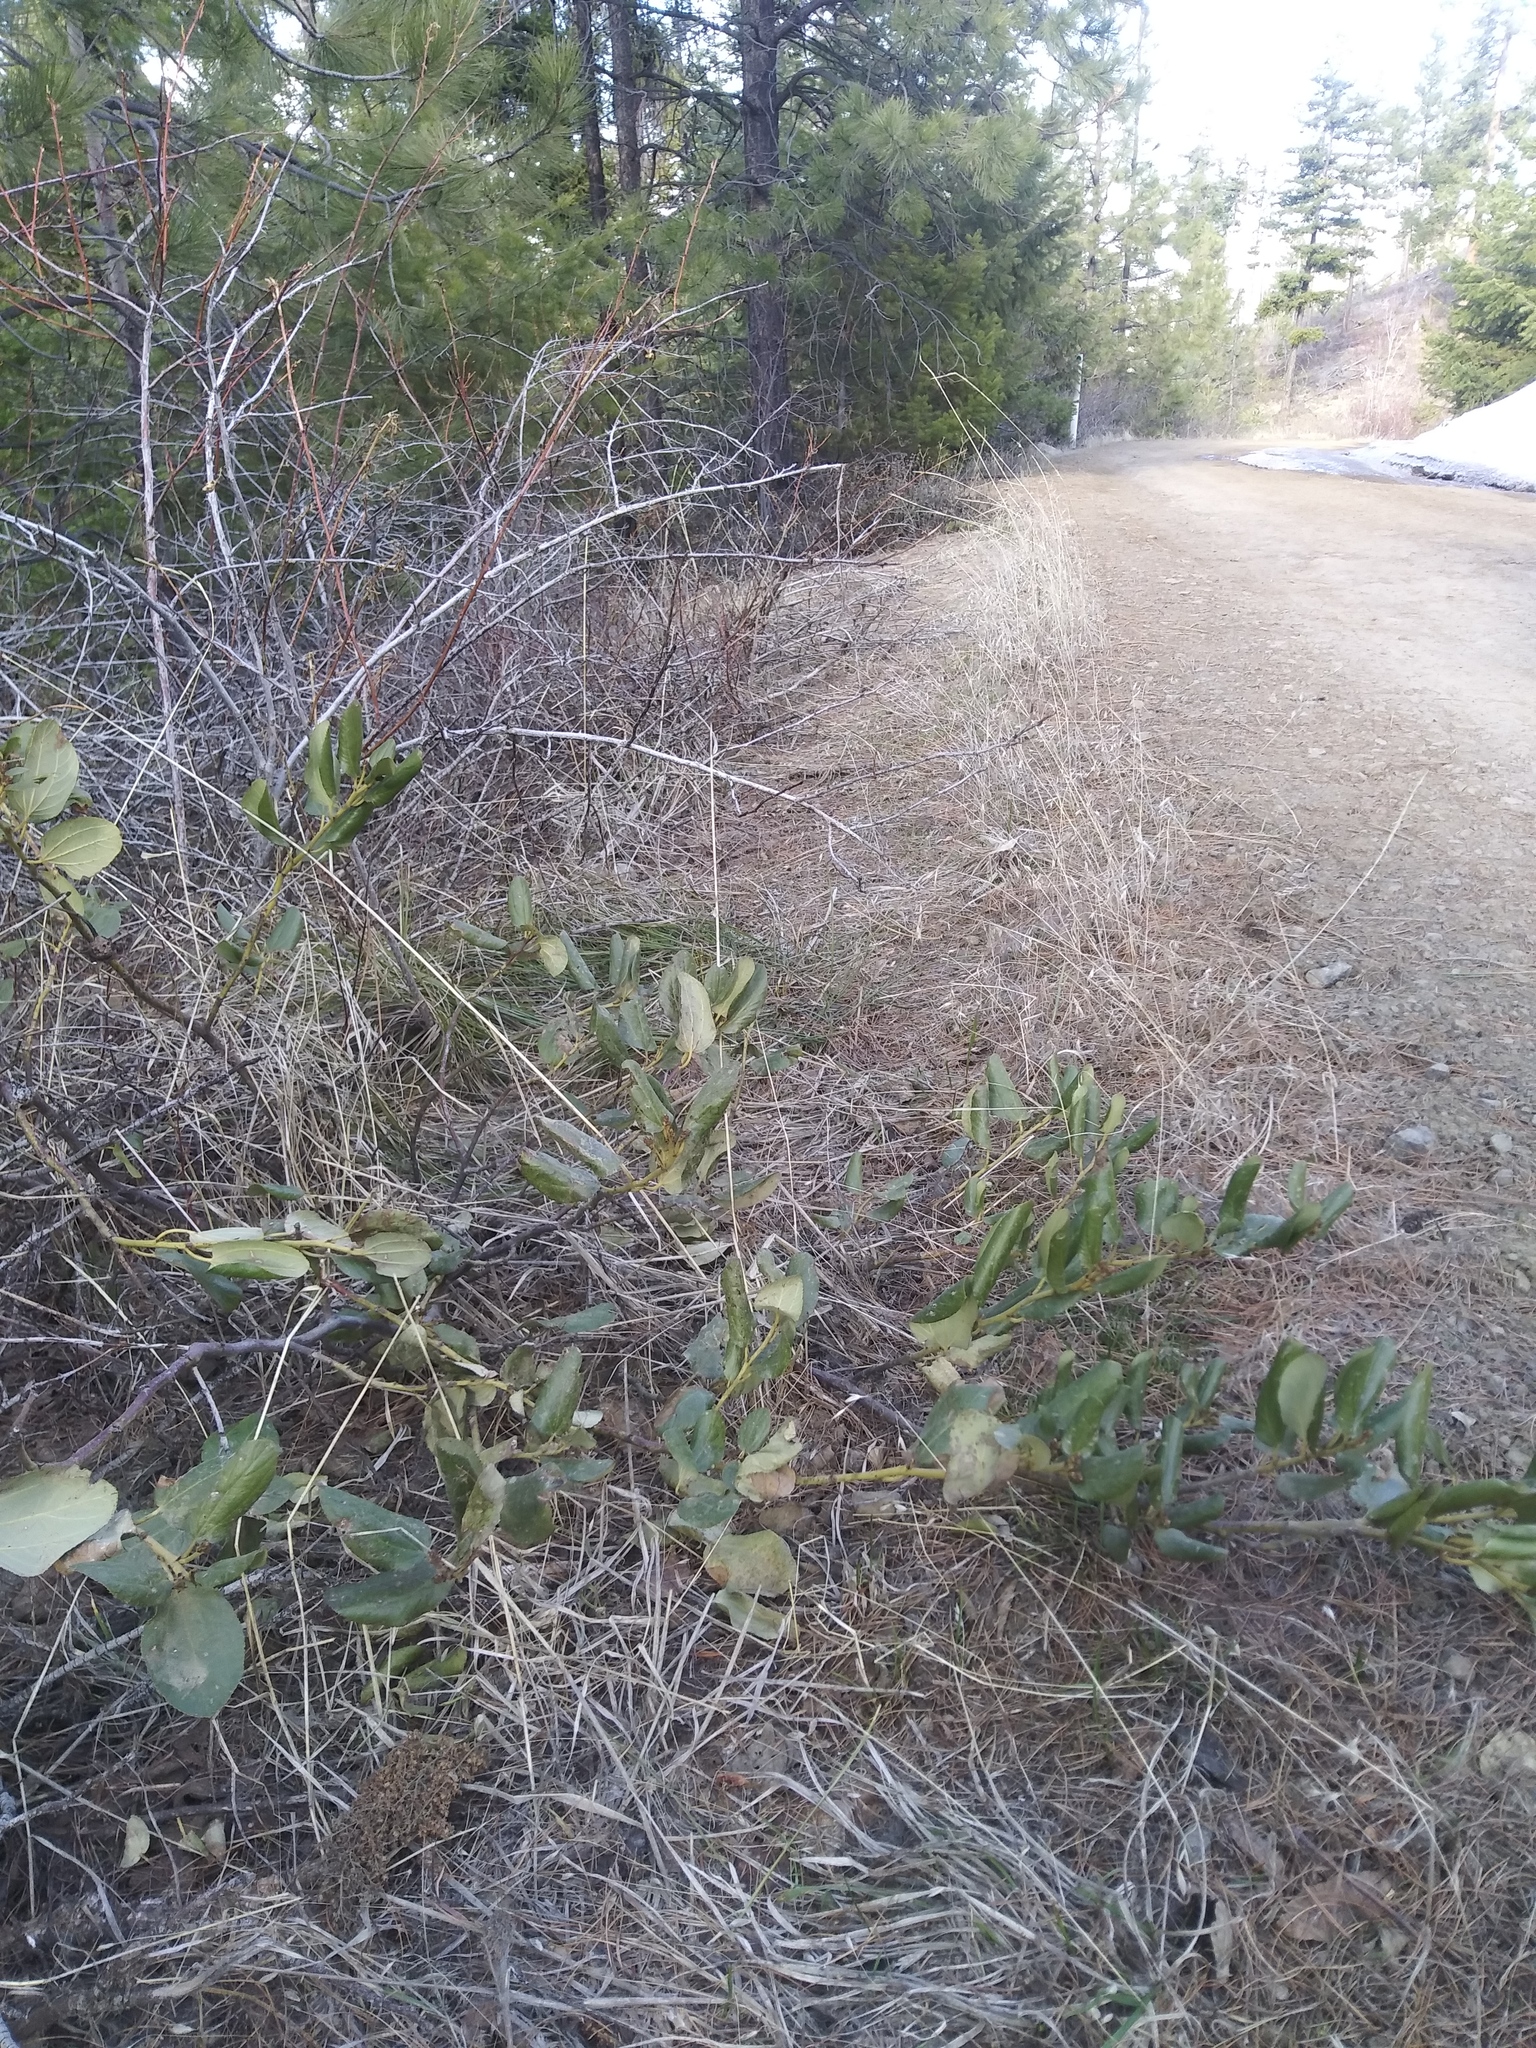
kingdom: Plantae
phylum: Tracheophyta
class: Magnoliopsida
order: Rosales
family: Rhamnaceae
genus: Ceanothus
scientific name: Ceanothus velutinus
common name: Snowbrush
